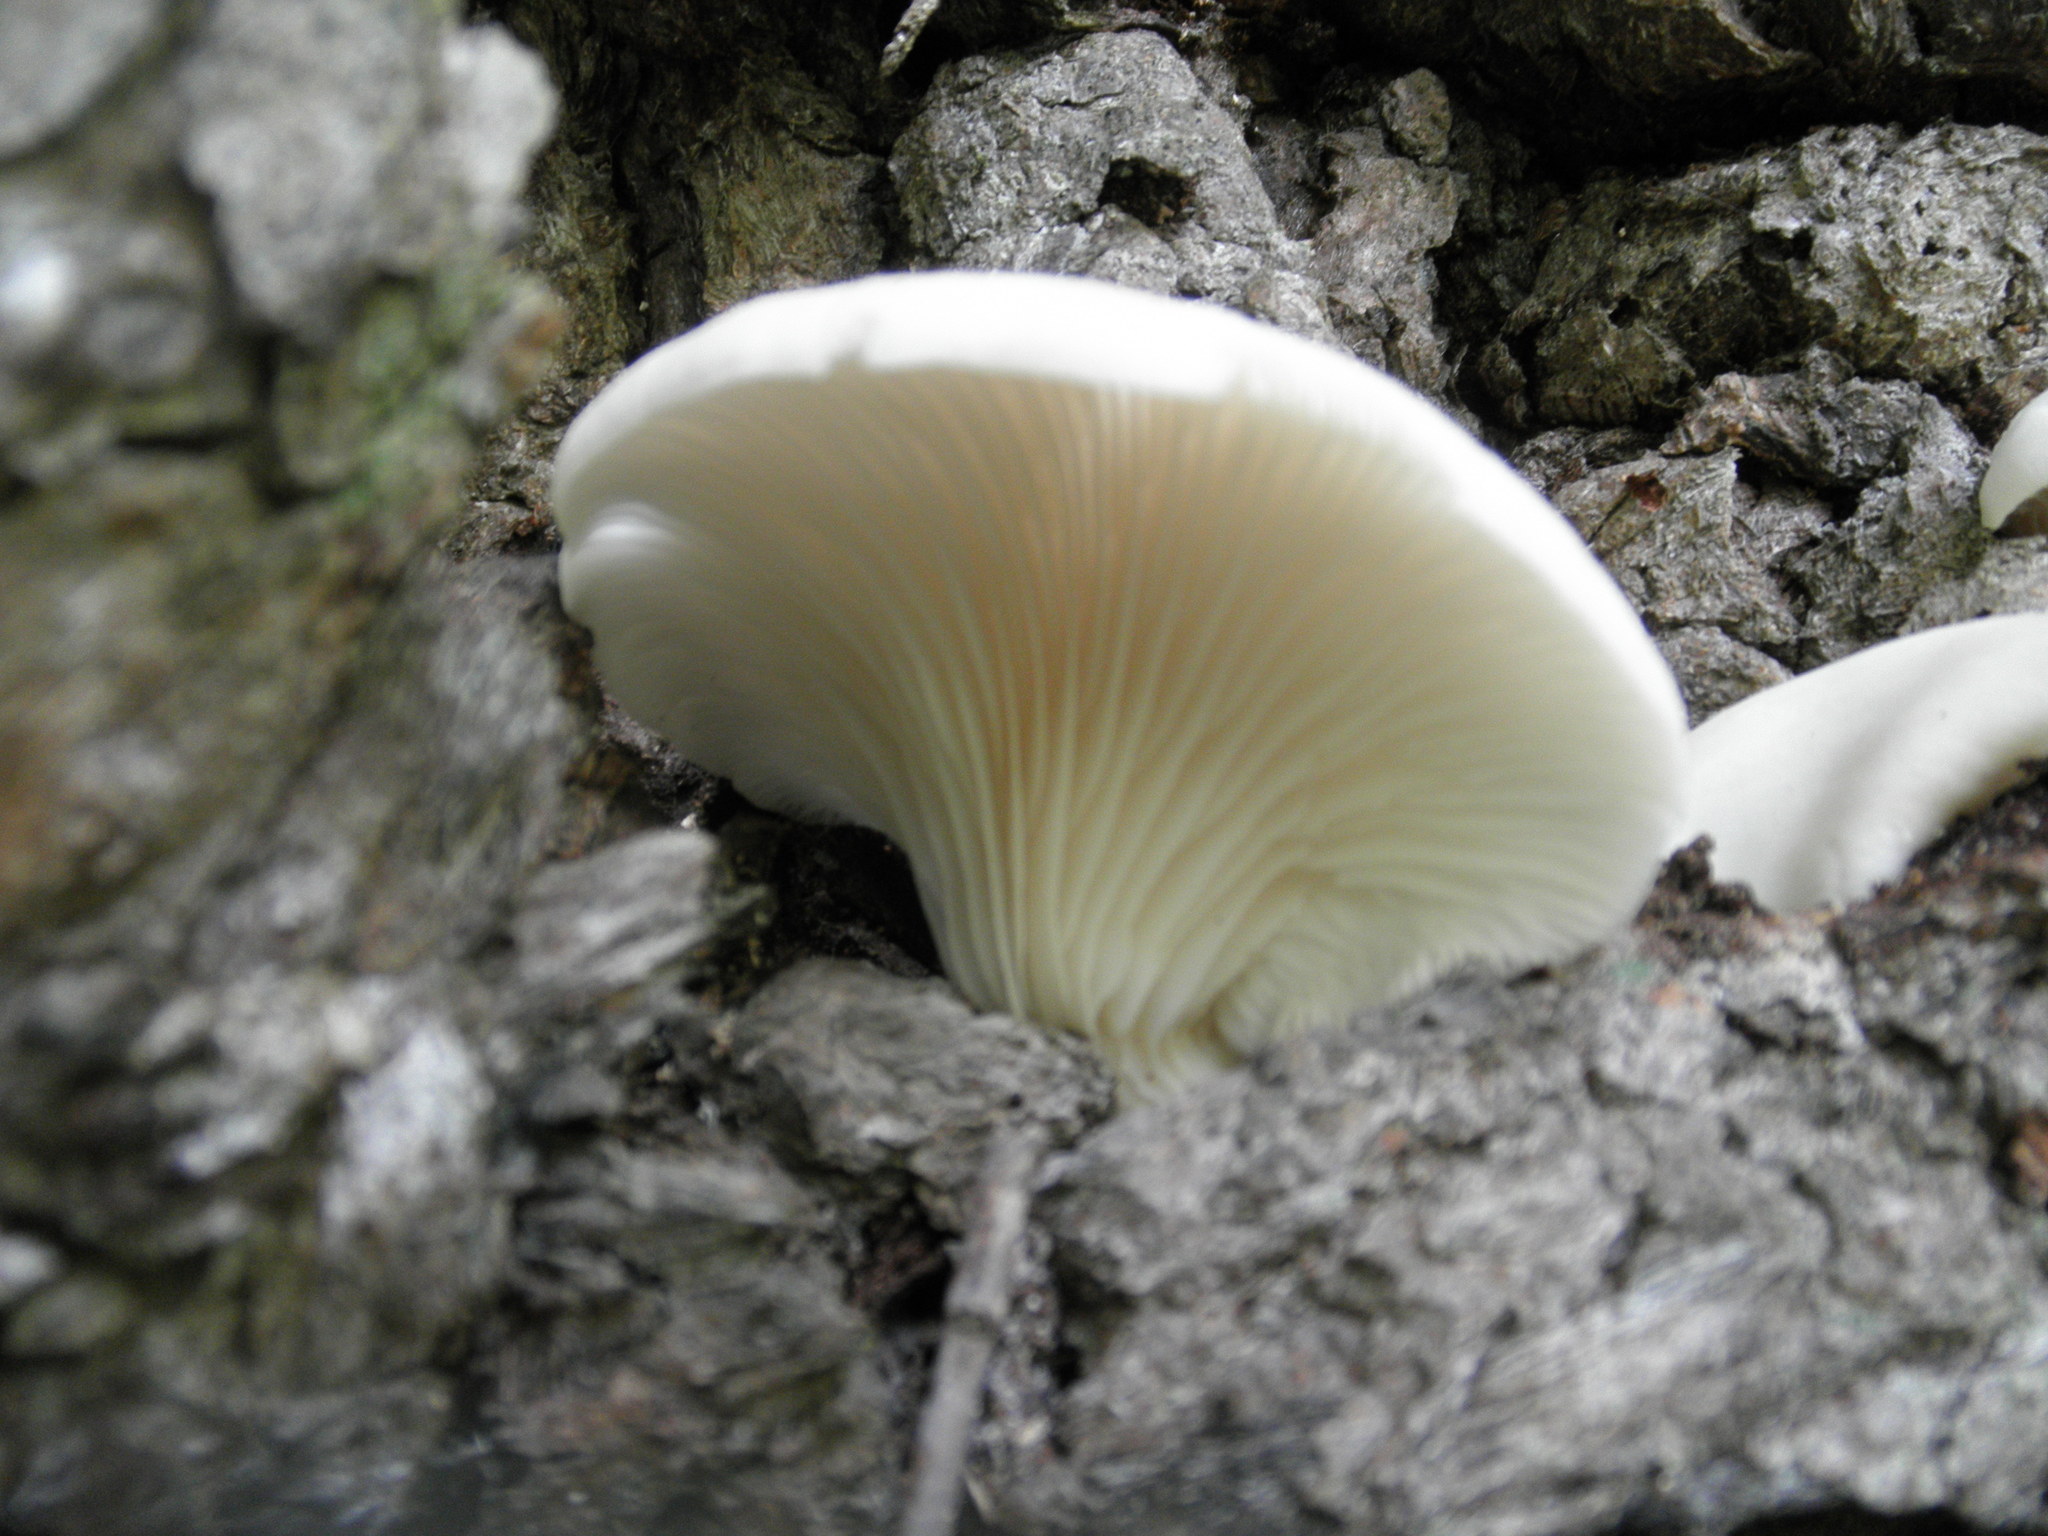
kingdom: Fungi
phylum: Basidiomycota
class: Agaricomycetes
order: Agaricales
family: Pleurotaceae
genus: Pleurotus
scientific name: Pleurotus pulmonarius
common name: Pale oyster
